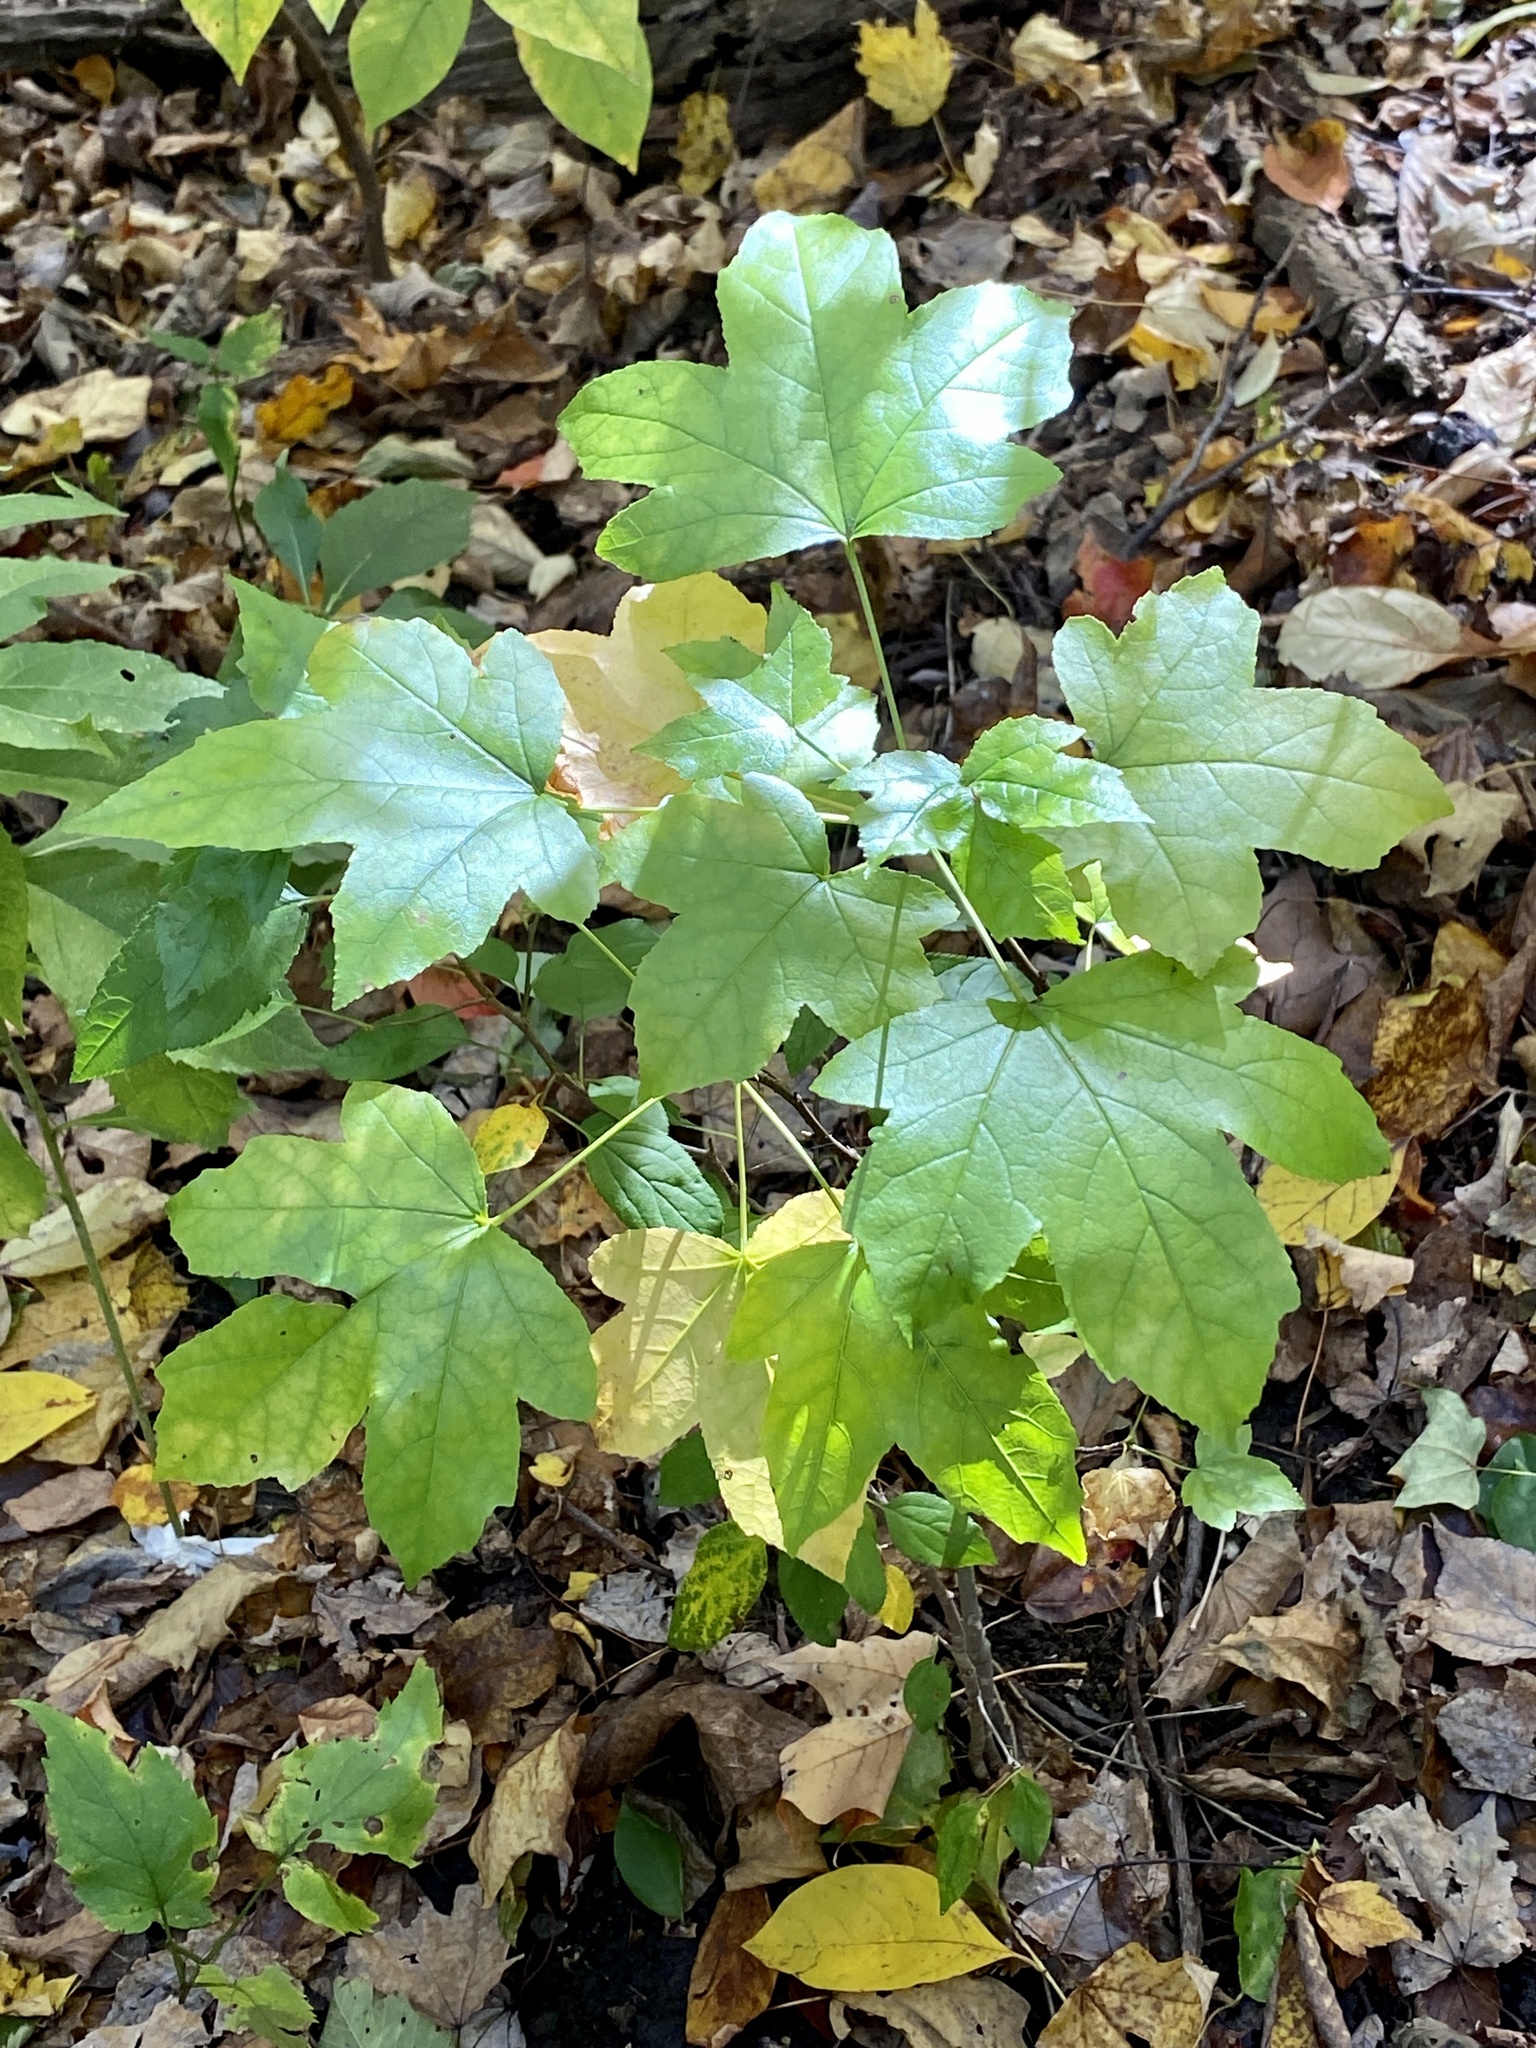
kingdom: Plantae
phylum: Tracheophyta
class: Magnoliopsida
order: Saxifragales
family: Altingiaceae
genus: Liquidambar
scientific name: Liquidambar styraciflua
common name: Sweet gum
